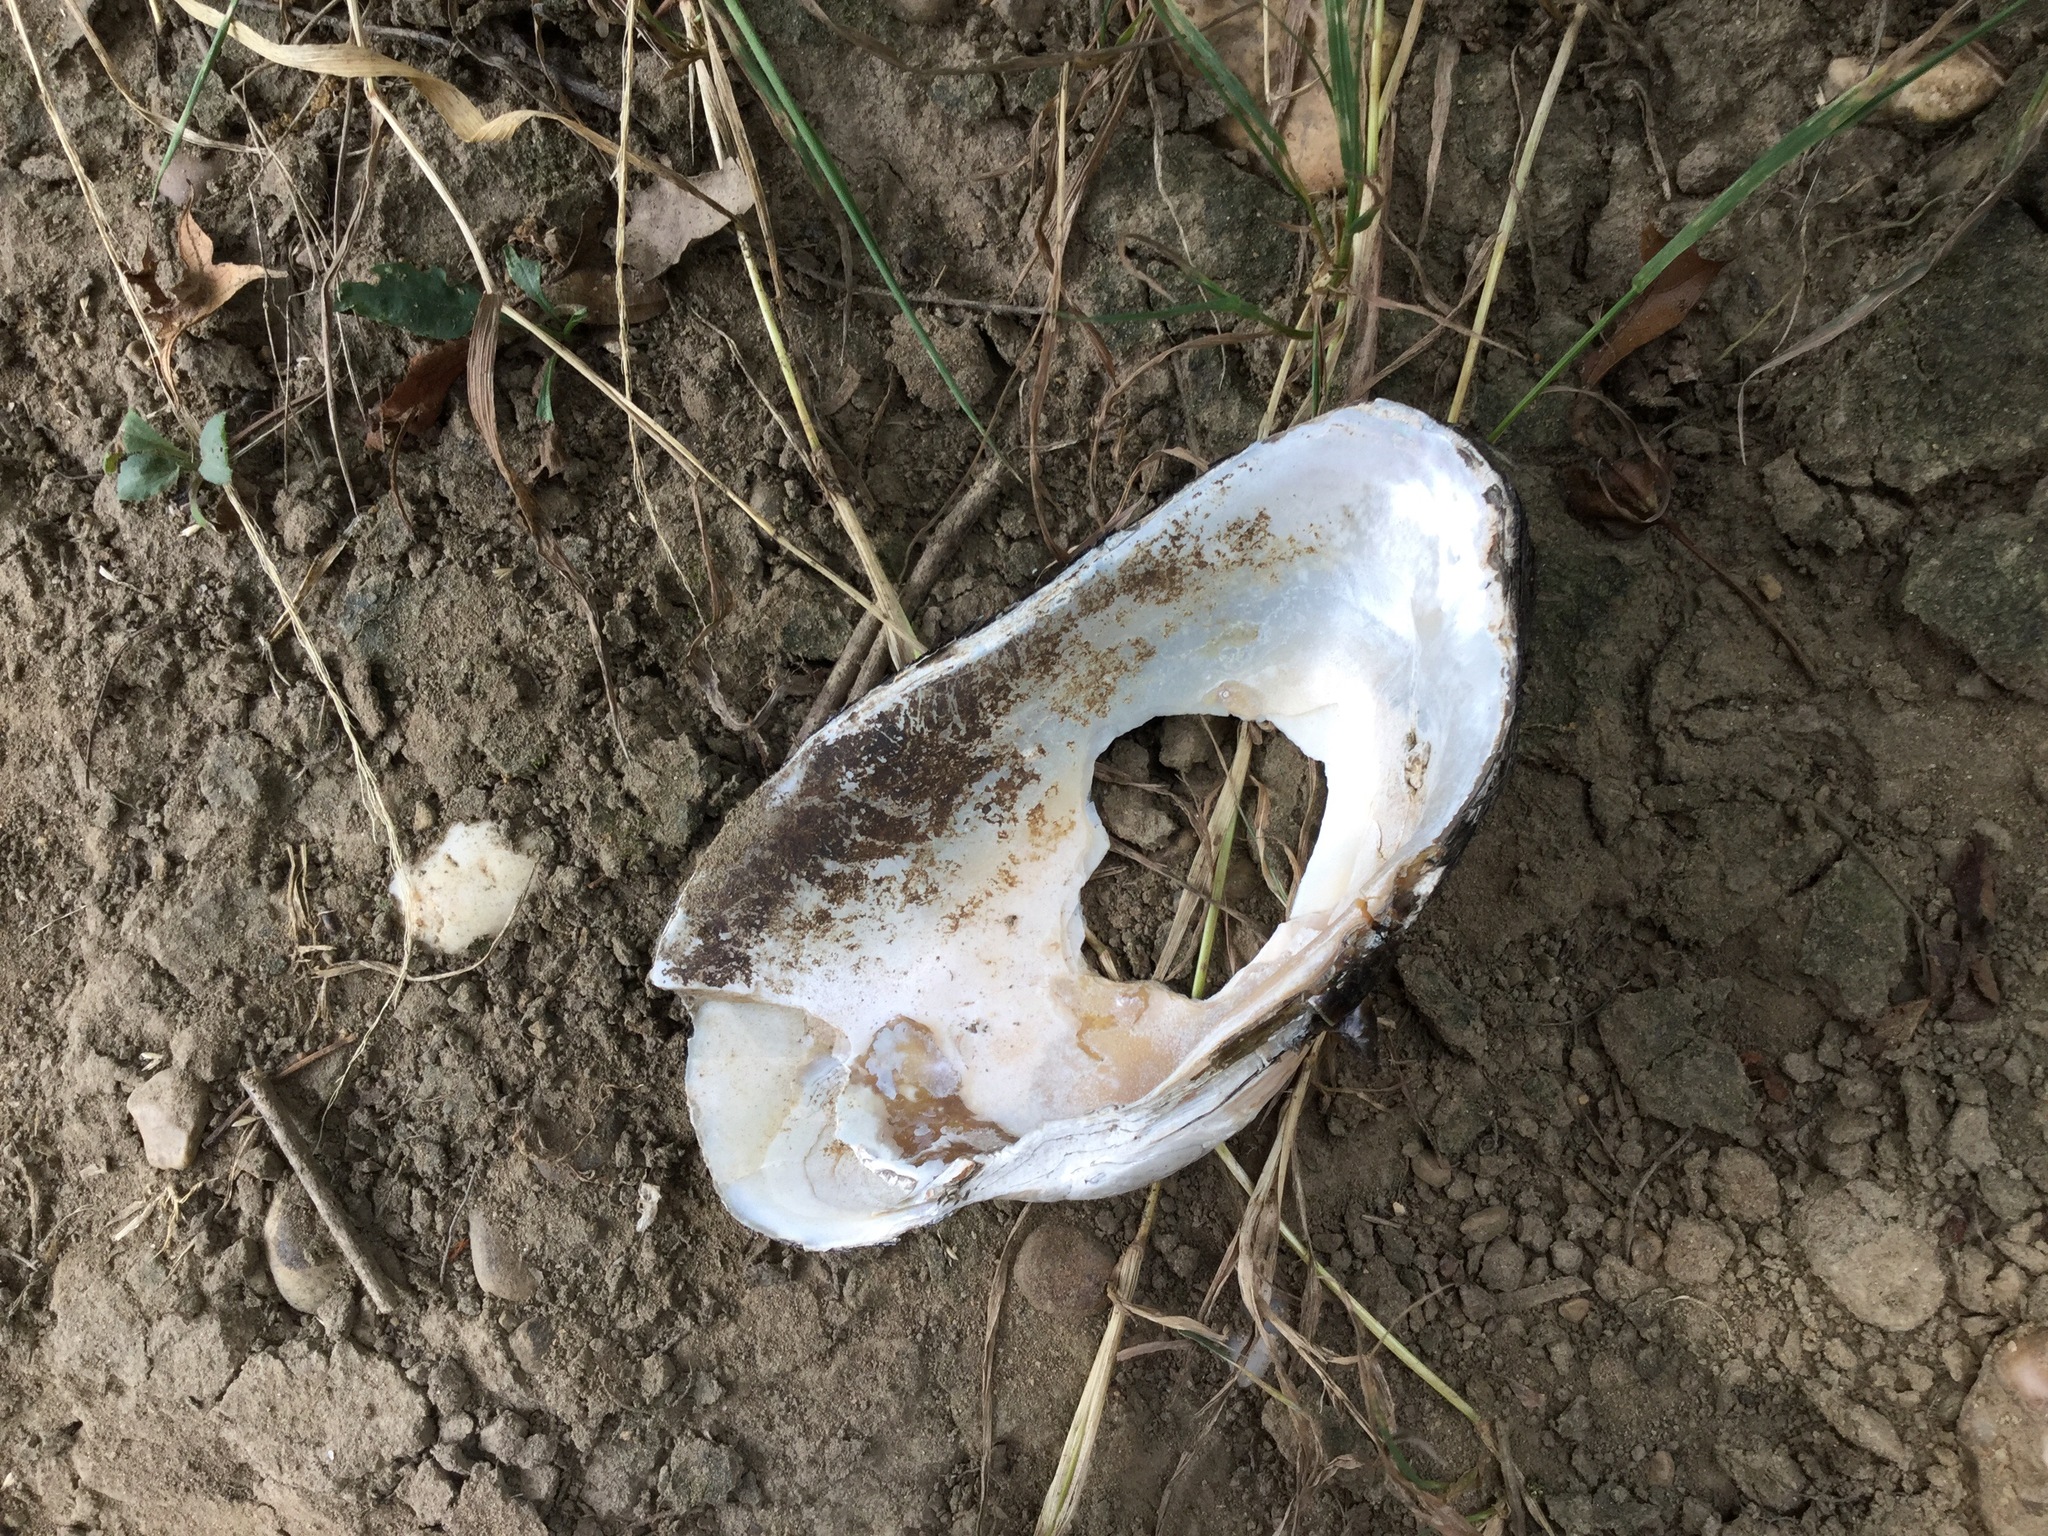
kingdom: Animalia
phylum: Mollusca
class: Bivalvia
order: Unionida
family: Unionidae
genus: Strophitus
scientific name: Strophitus undulatus
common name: Creeper
